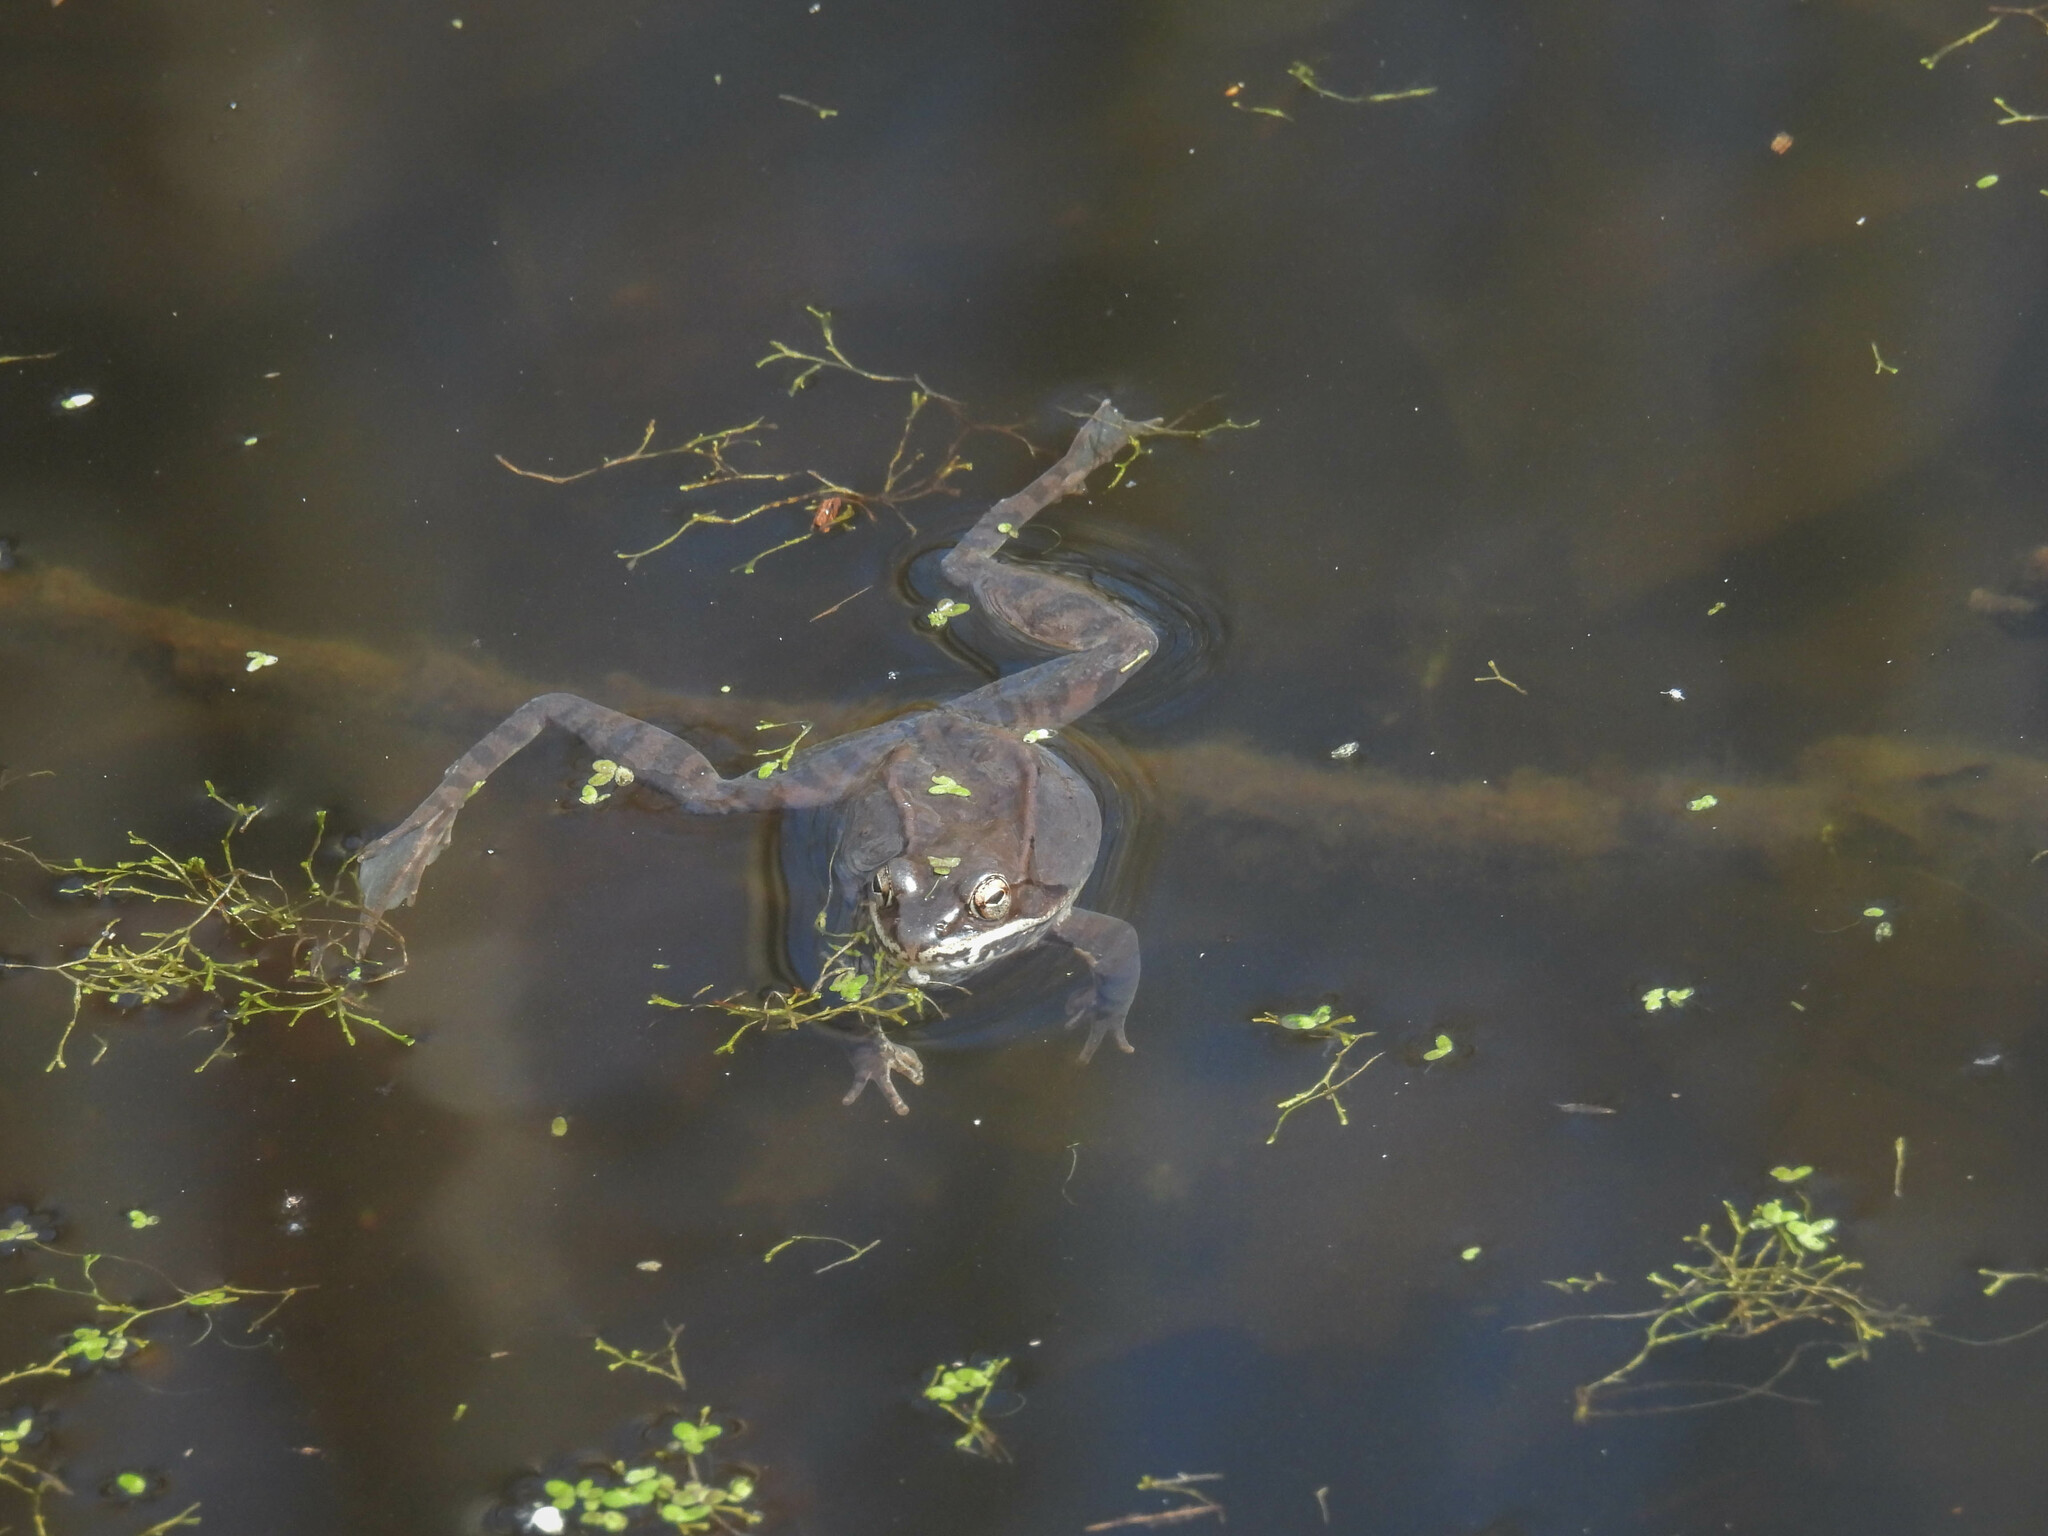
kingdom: Animalia
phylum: Chordata
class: Amphibia
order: Anura
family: Ranidae
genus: Lithobates
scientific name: Lithobates sylvaticus
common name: Wood frog
